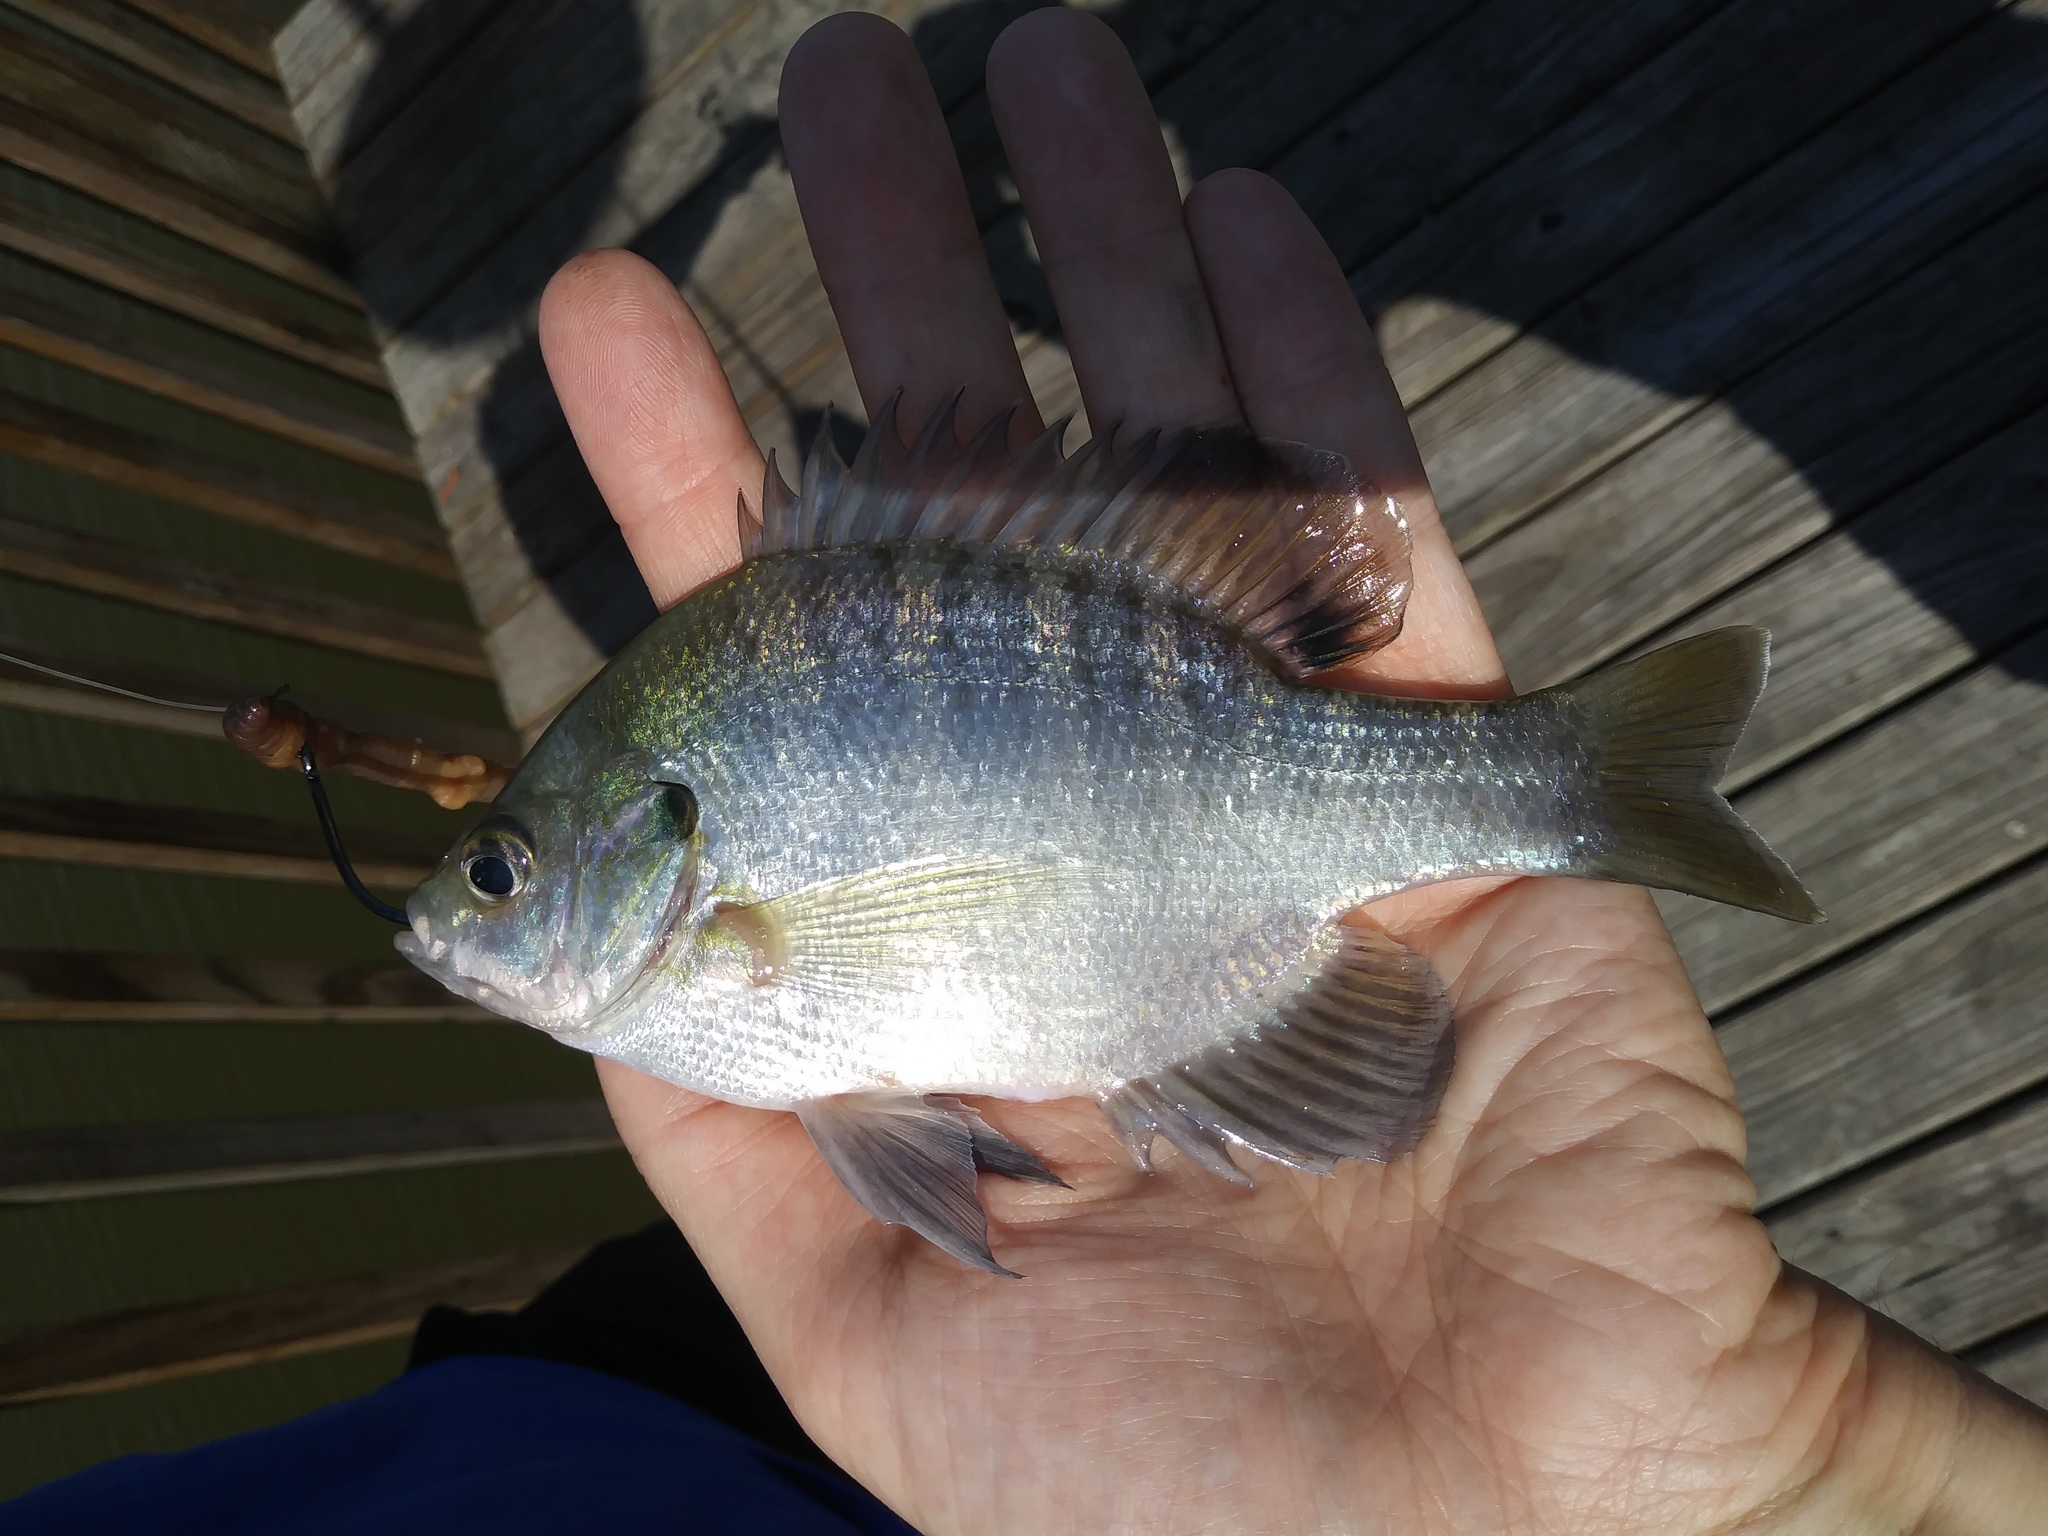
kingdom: Animalia
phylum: Chordata
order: Perciformes
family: Centrarchidae
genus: Lepomis
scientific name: Lepomis macrochirus
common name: Bluegill
